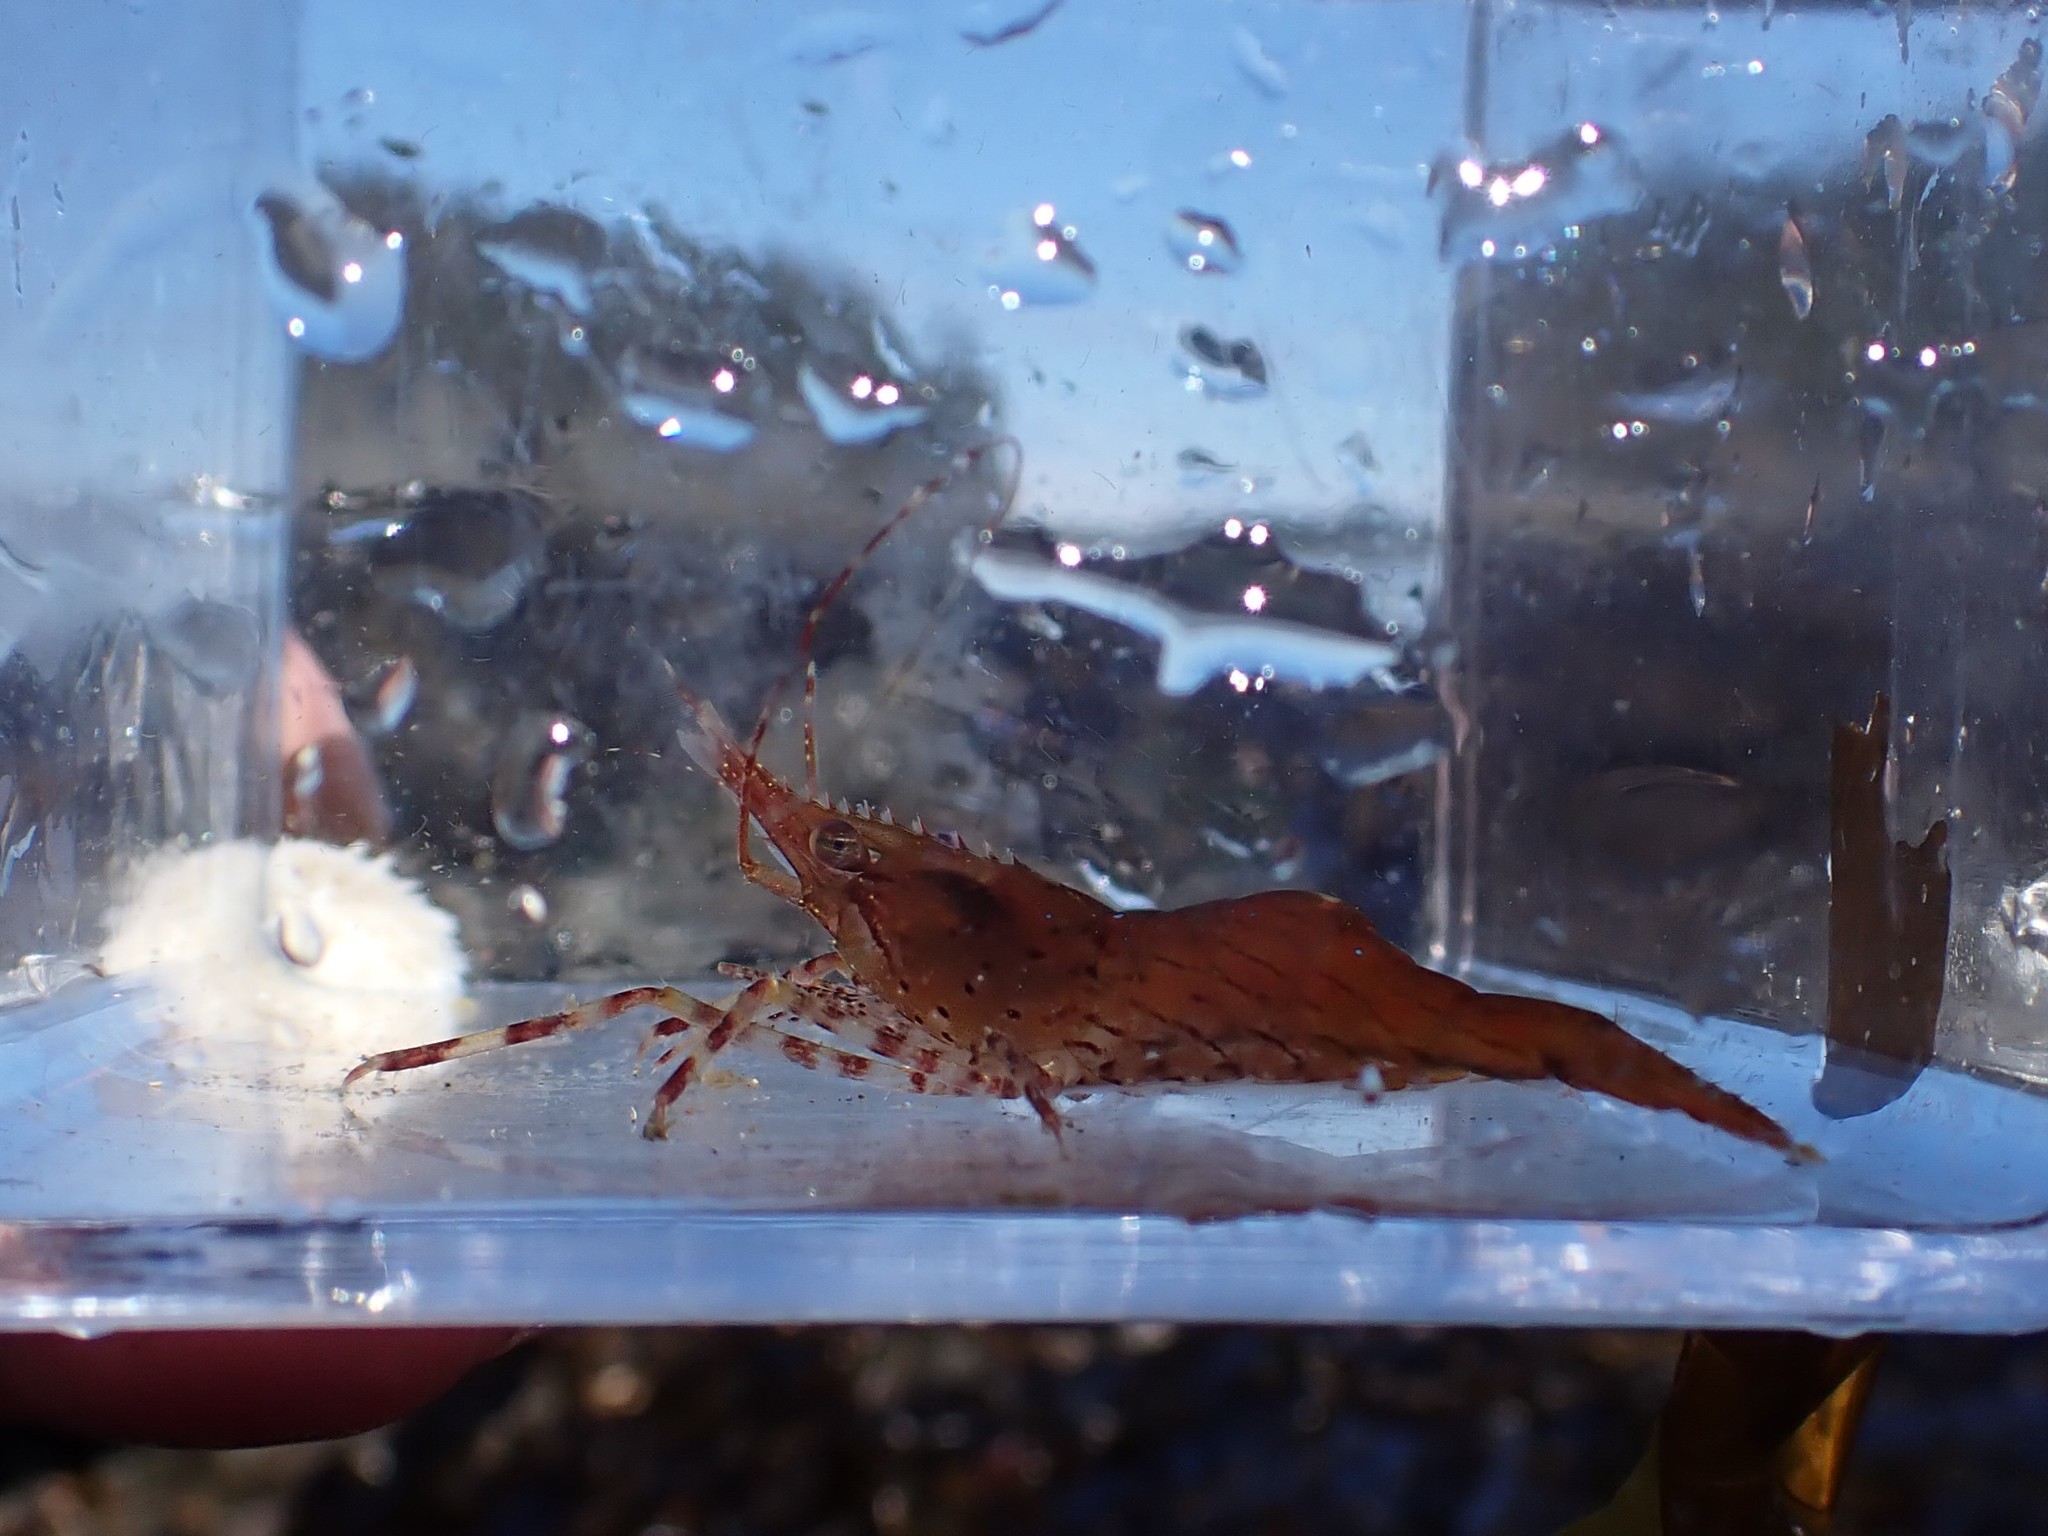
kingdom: Animalia
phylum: Arthropoda
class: Malacostraca
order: Decapoda
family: Pandalidae
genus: Pandalus
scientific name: Pandalus danae
